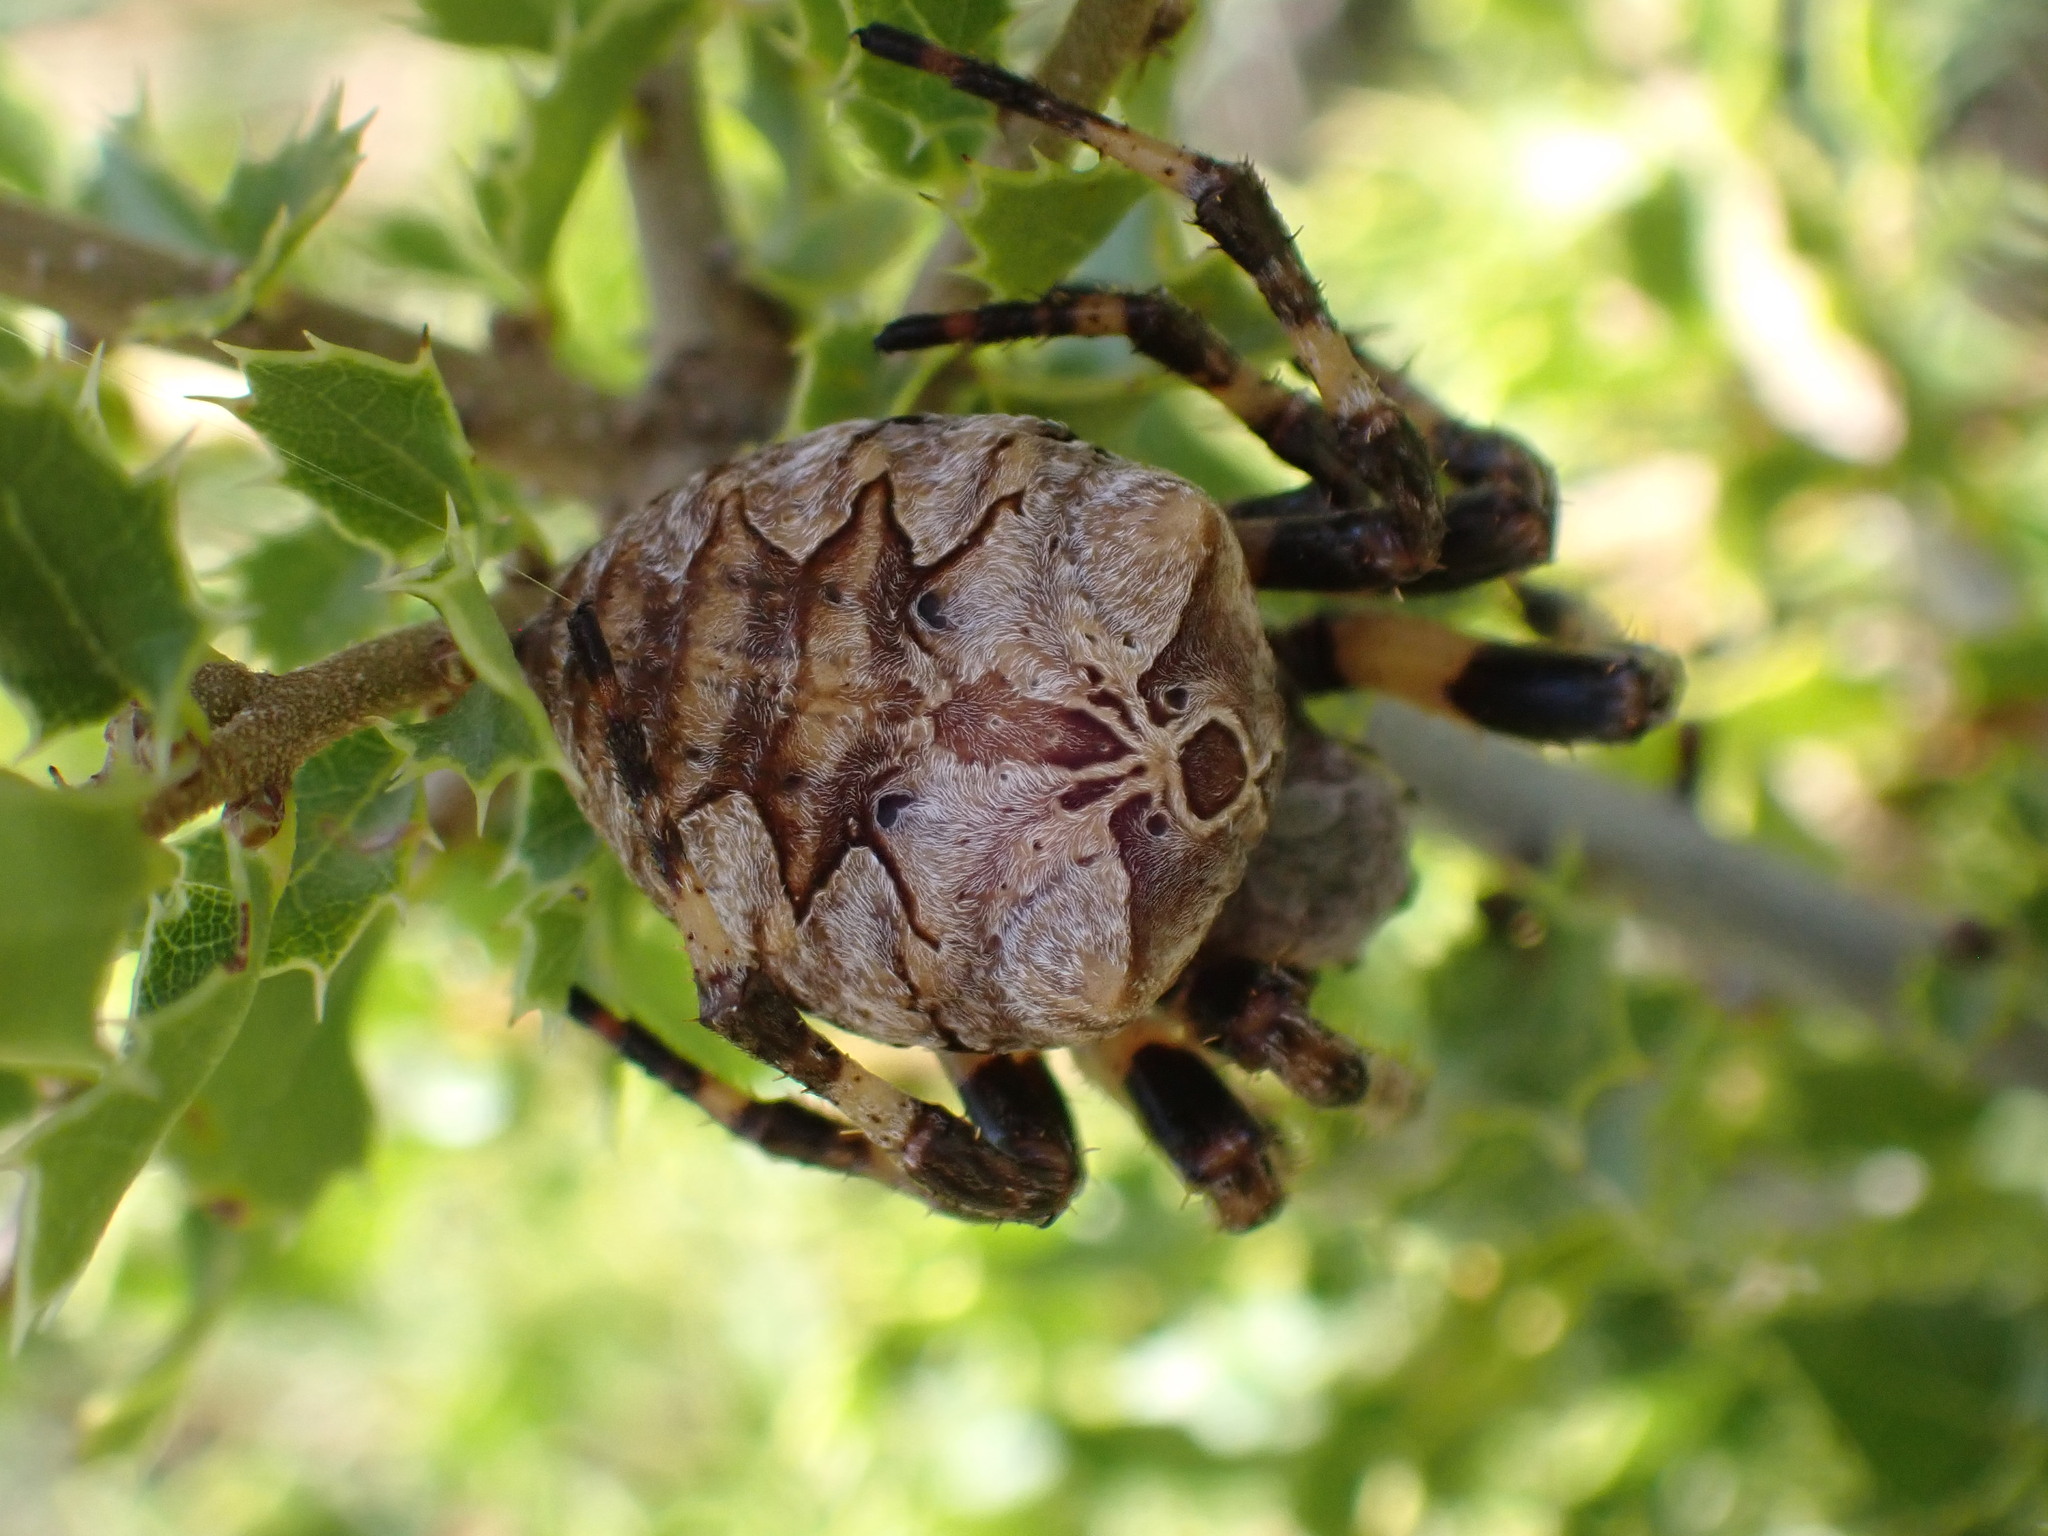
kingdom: Animalia
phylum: Arthropoda
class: Arachnida
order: Araneae
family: Araneidae
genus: Araneus
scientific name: Araneus grossus
